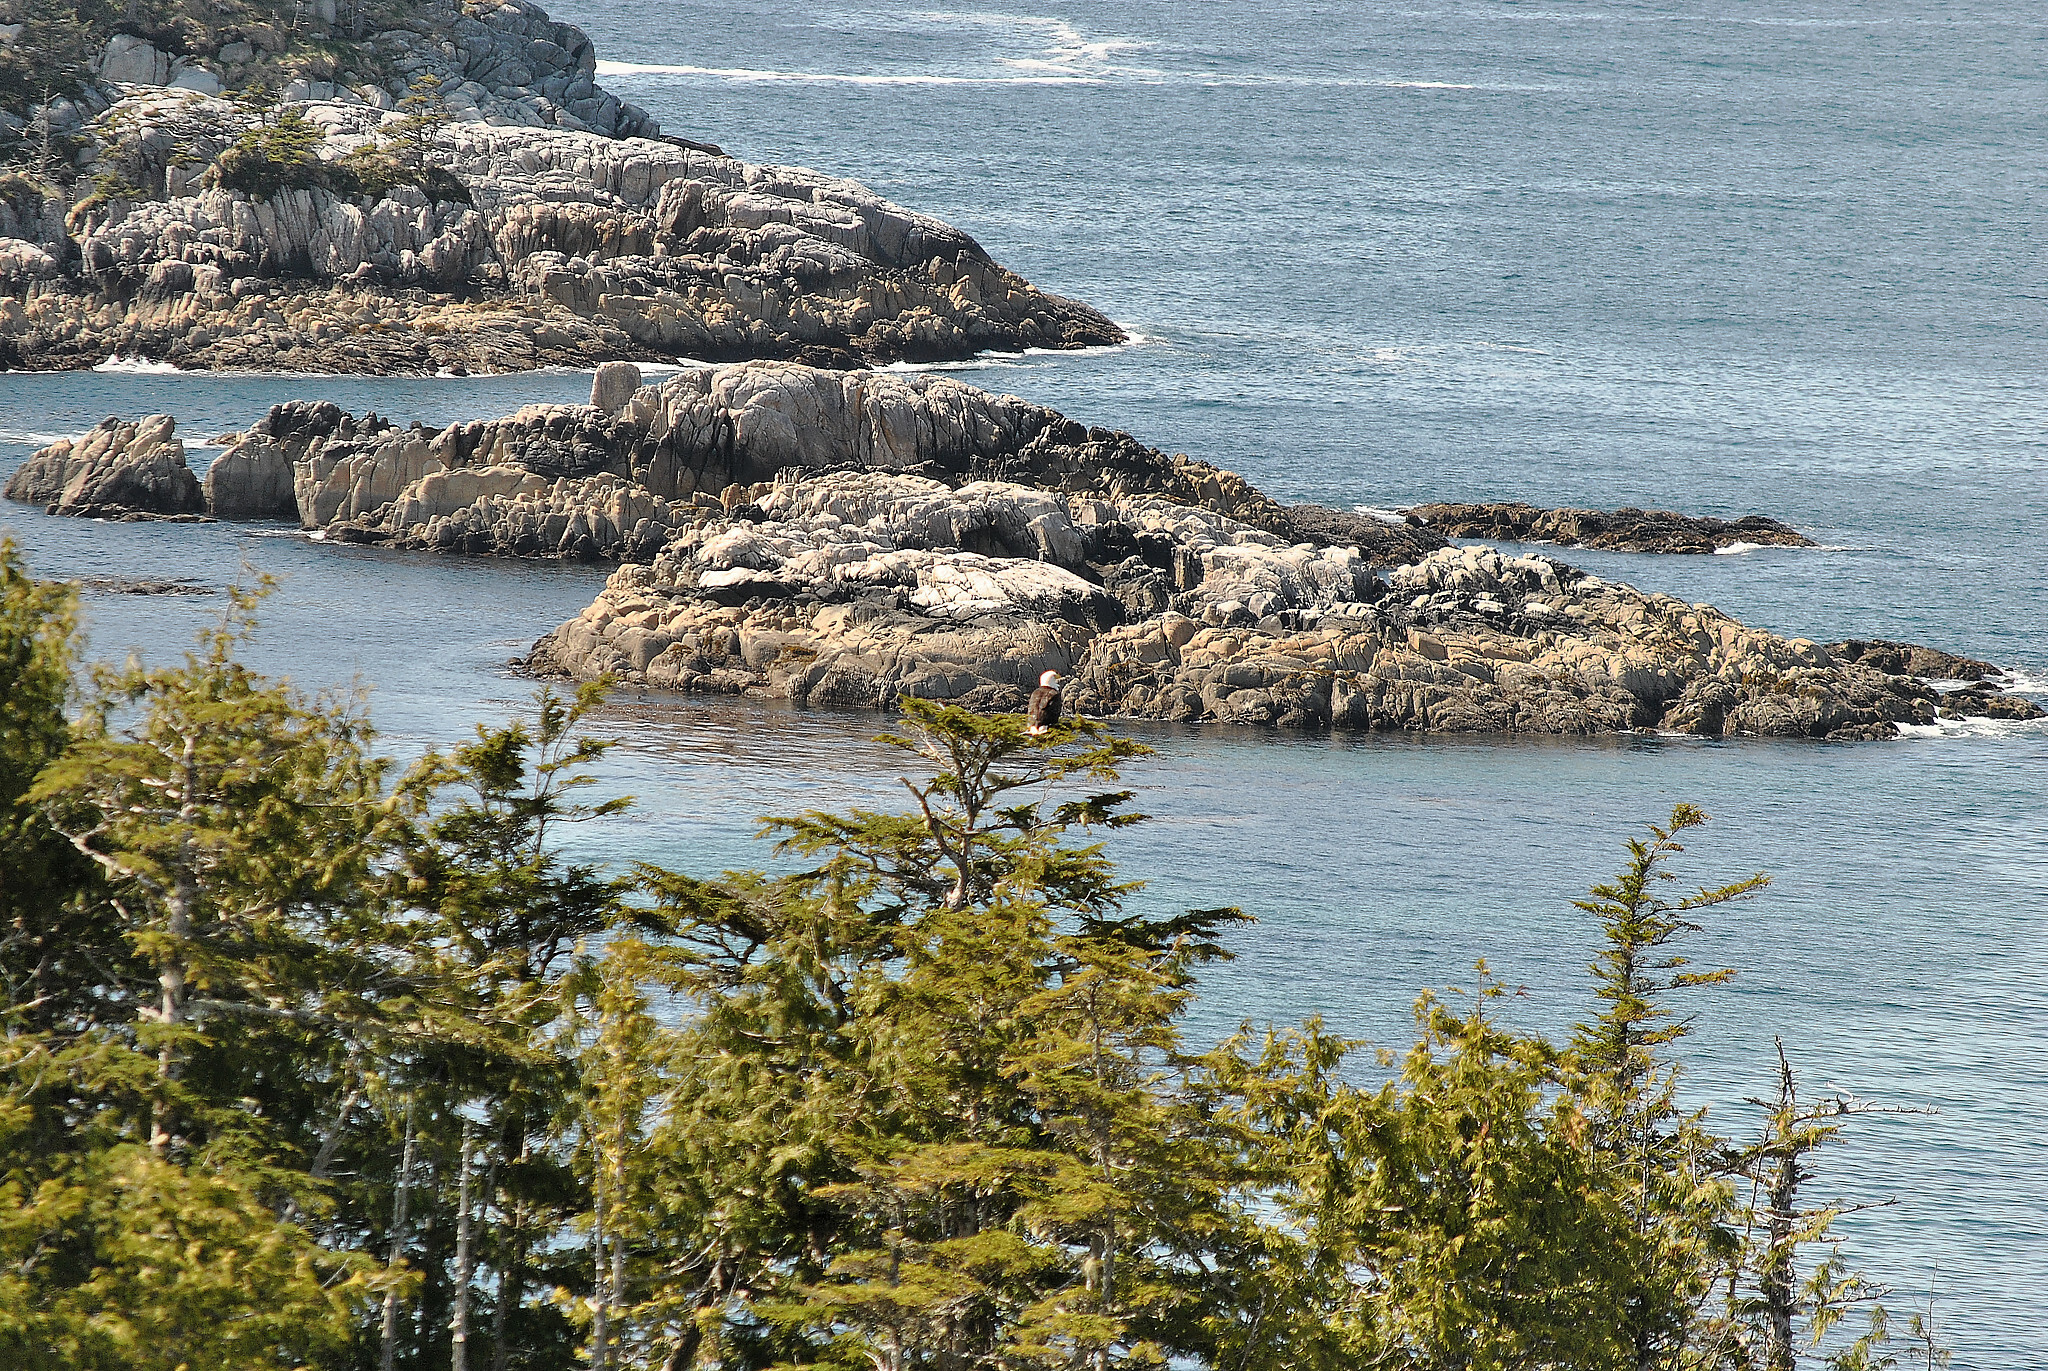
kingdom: Animalia
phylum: Chordata
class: Aves
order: Accipitriformes
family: Accipitridae
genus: Haliaeetus
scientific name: Haliaeetus leucocephalus
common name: Bald eagle
